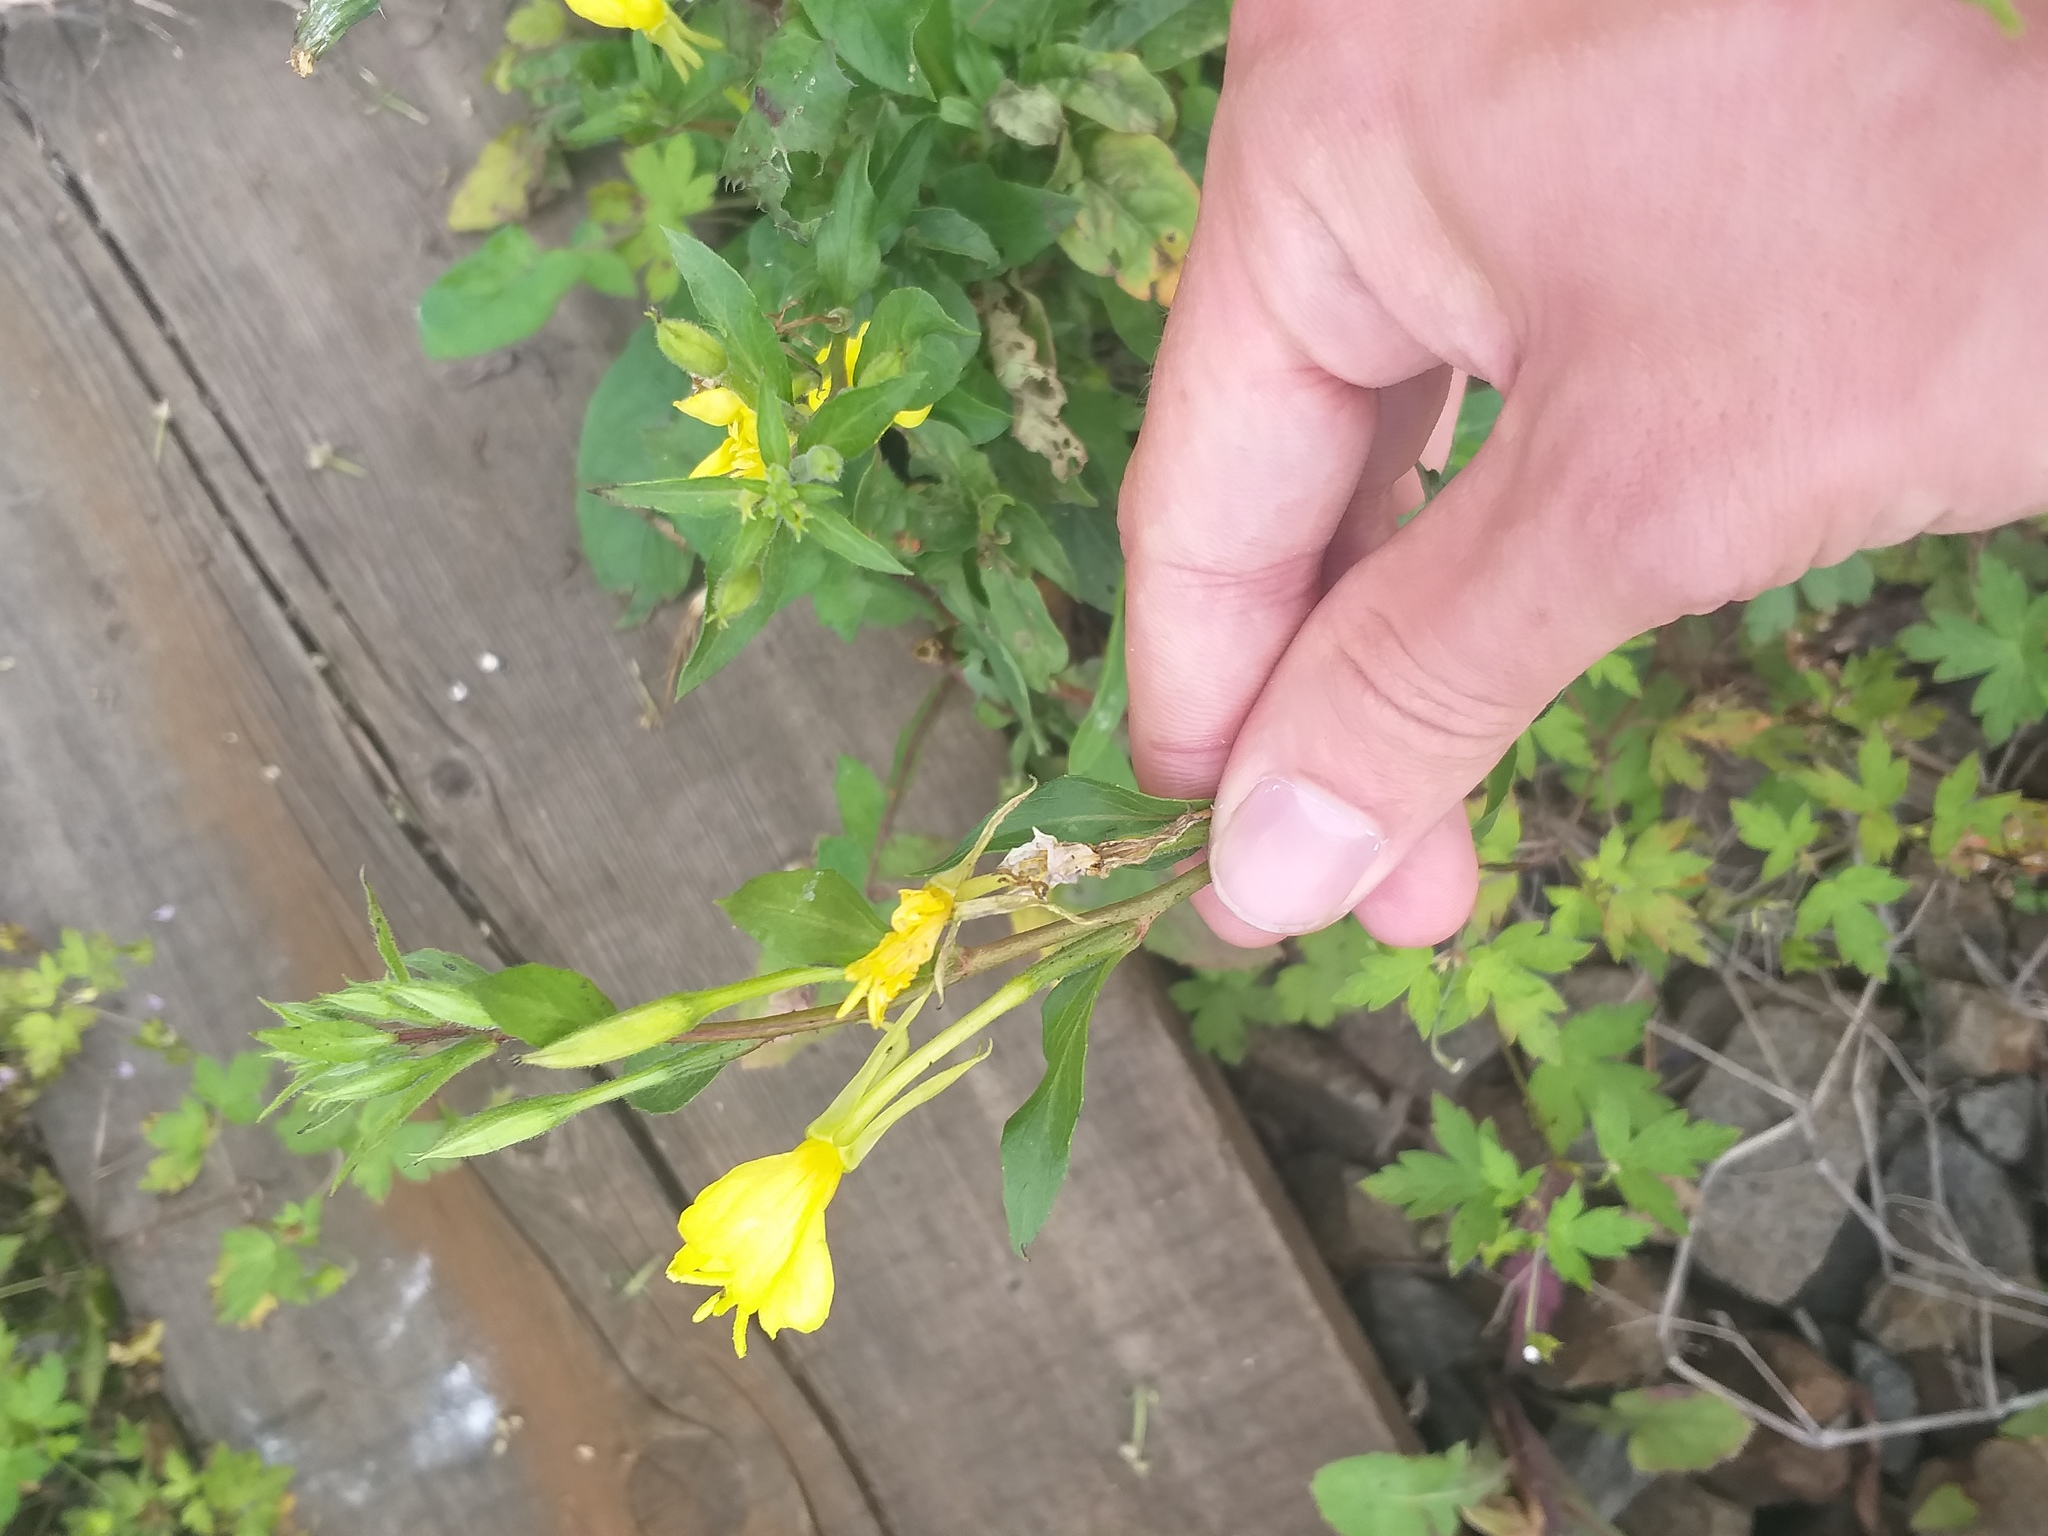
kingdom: Plantae
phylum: Tracheophyta
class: Magnoliopsida
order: Myrtales
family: Onagraceae
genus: Oenothera
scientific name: Oenothera rubricaulis
